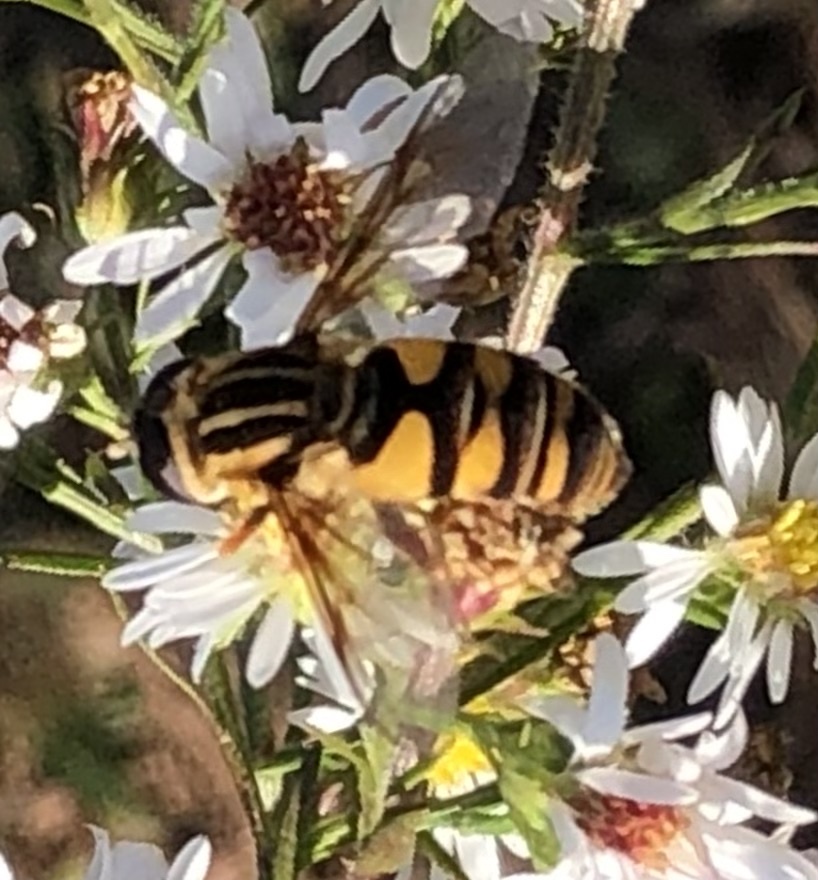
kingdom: Animalia
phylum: Arthropoda
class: Insecta
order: Diptera
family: Syrphidae
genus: Helophilus
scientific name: Helophilus fasciatus
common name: Narrow-headed marsh fly
